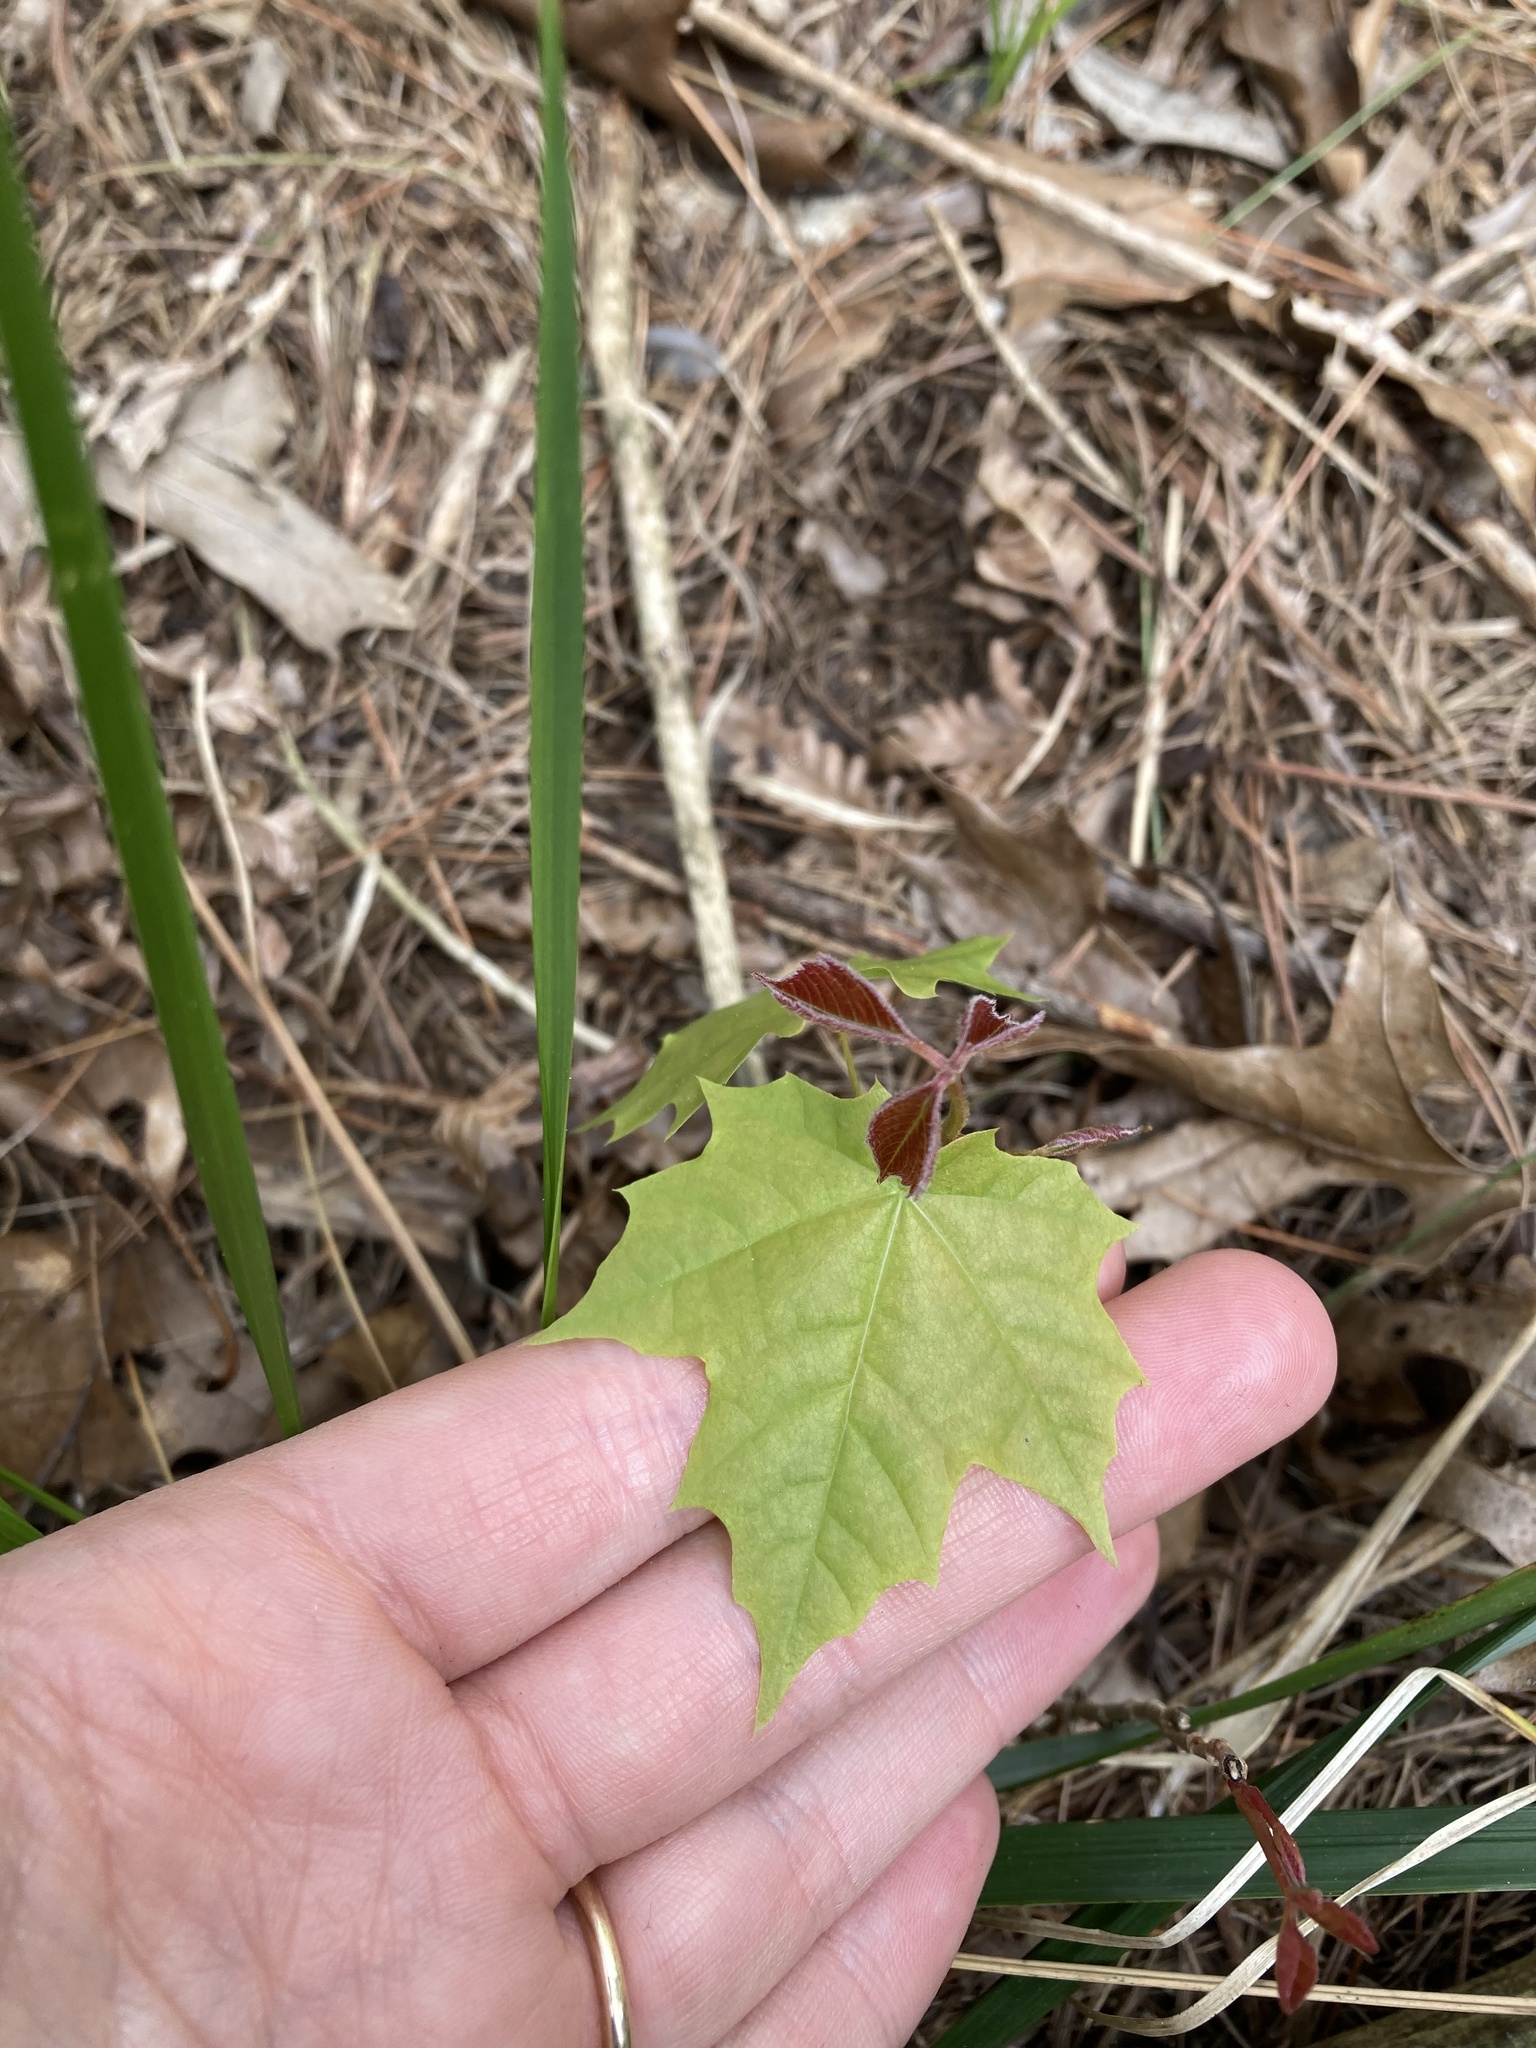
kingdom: Plantae
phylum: Tracheophyta
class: Magnoliopsida
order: Sapindales
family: Sapindaceae
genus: Acer
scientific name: Acer saccharum
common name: Sugar maple
